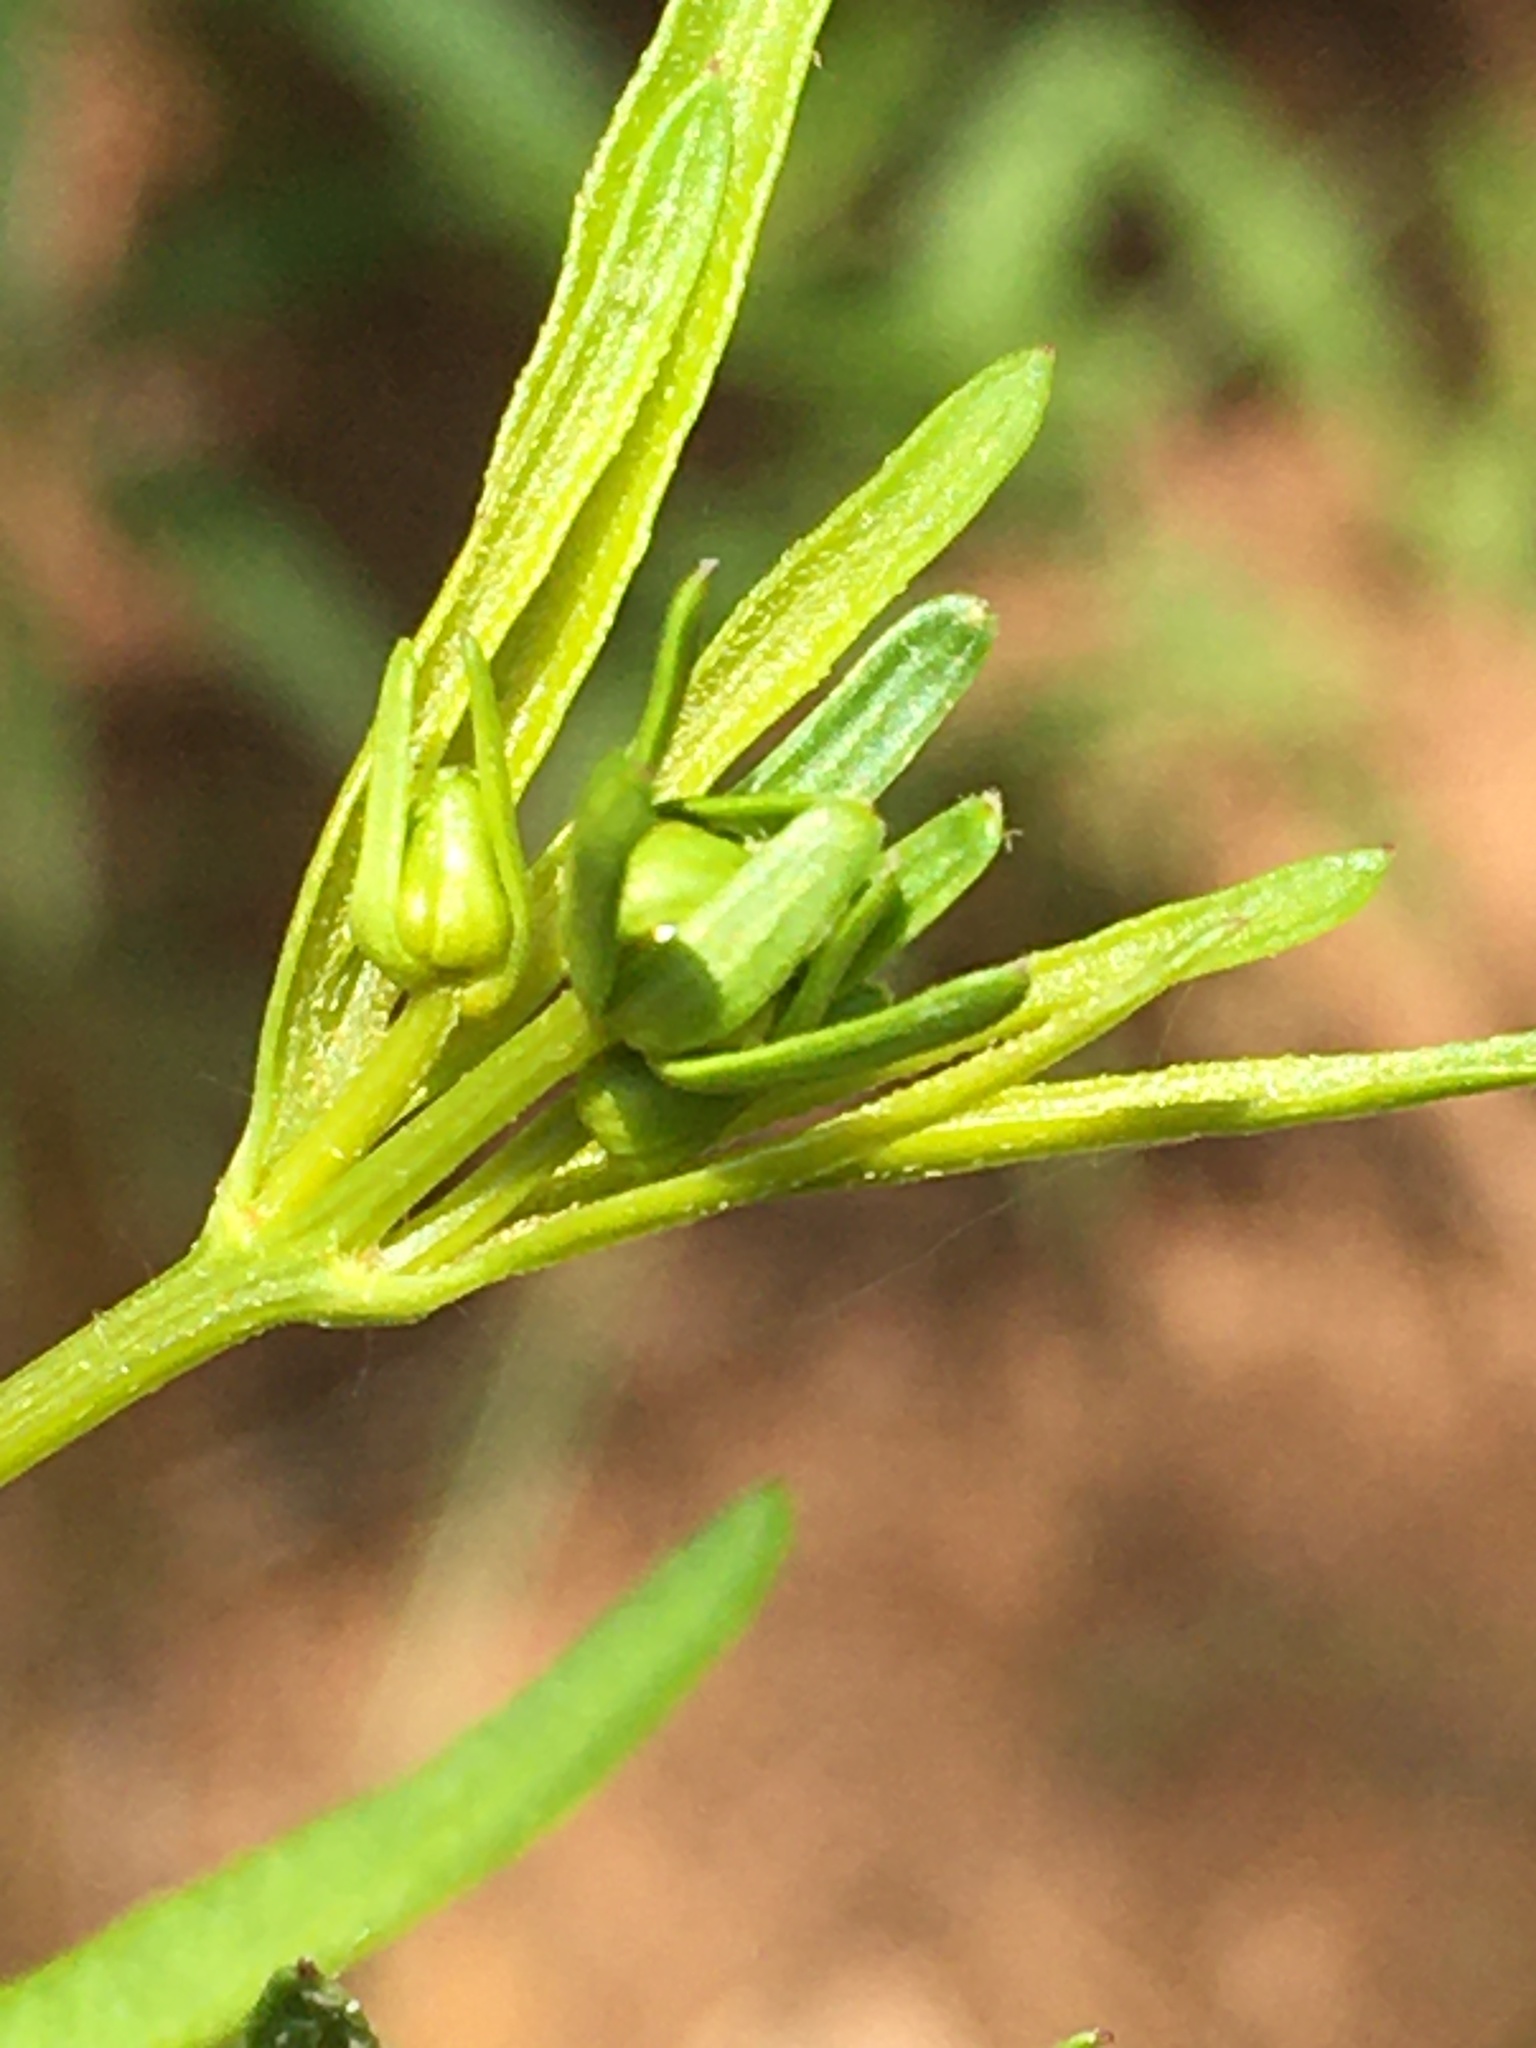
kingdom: Plantae
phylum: Tracheophyta
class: Magnoliopsida
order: Asterales
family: Asteraceae
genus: Coreopsis
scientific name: Coreopsis major
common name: Forest tickseed
